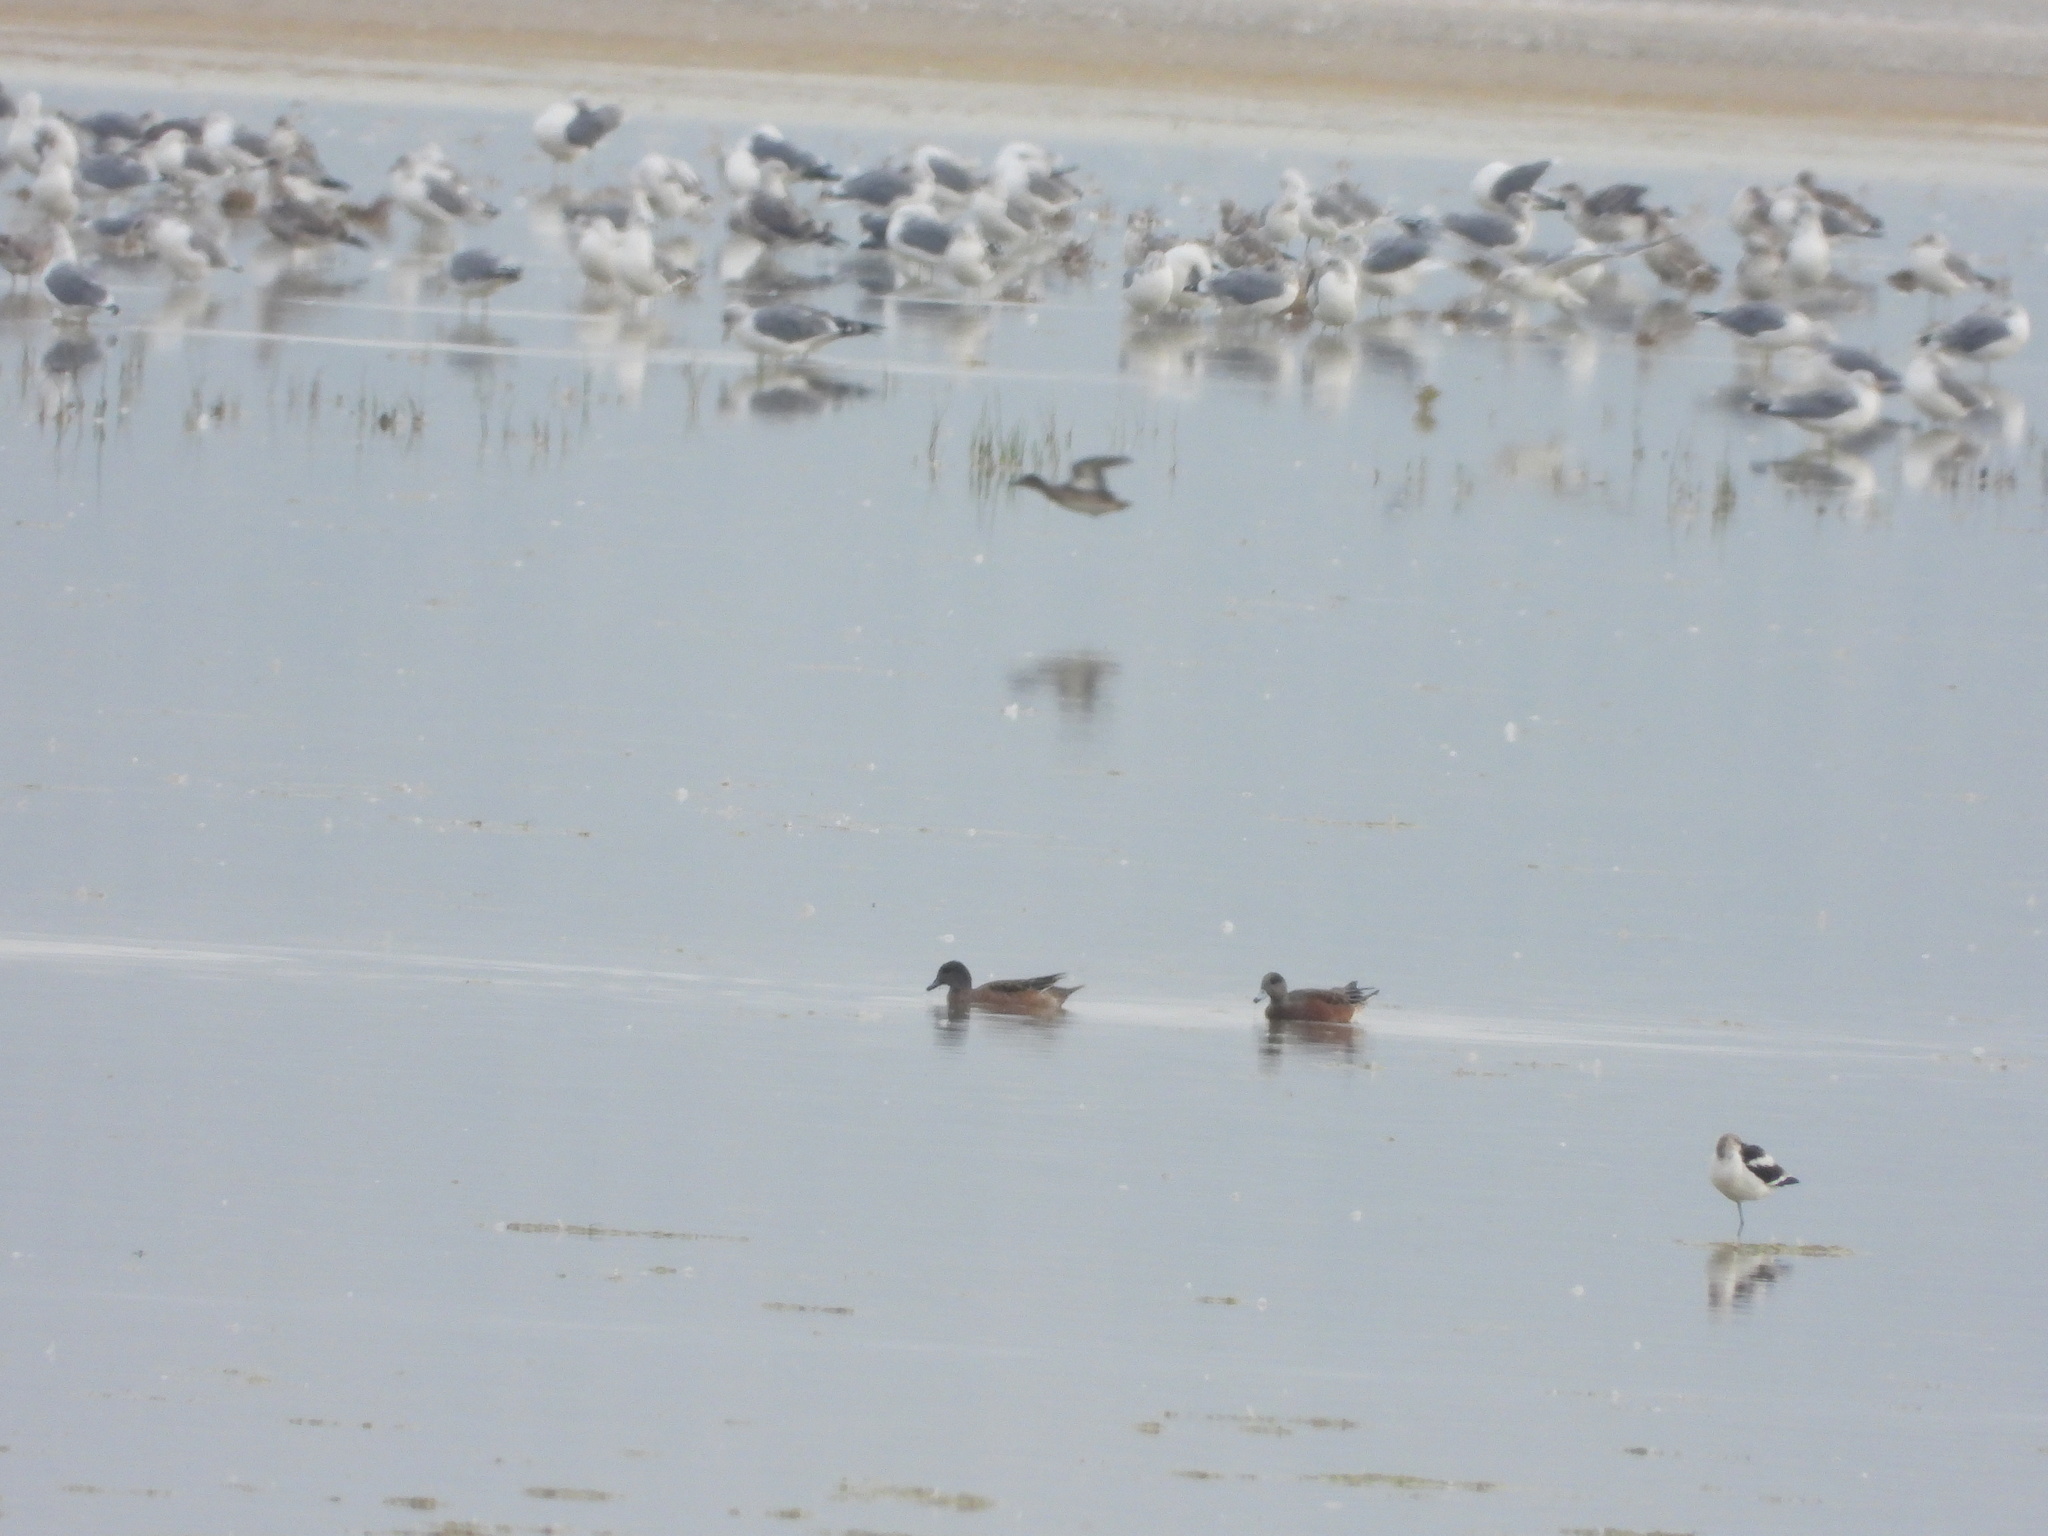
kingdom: Animalia
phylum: Chordata
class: Aves
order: Anseriformes
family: Anatidae
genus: Mareca
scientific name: Mareca americana
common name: American wigeon
